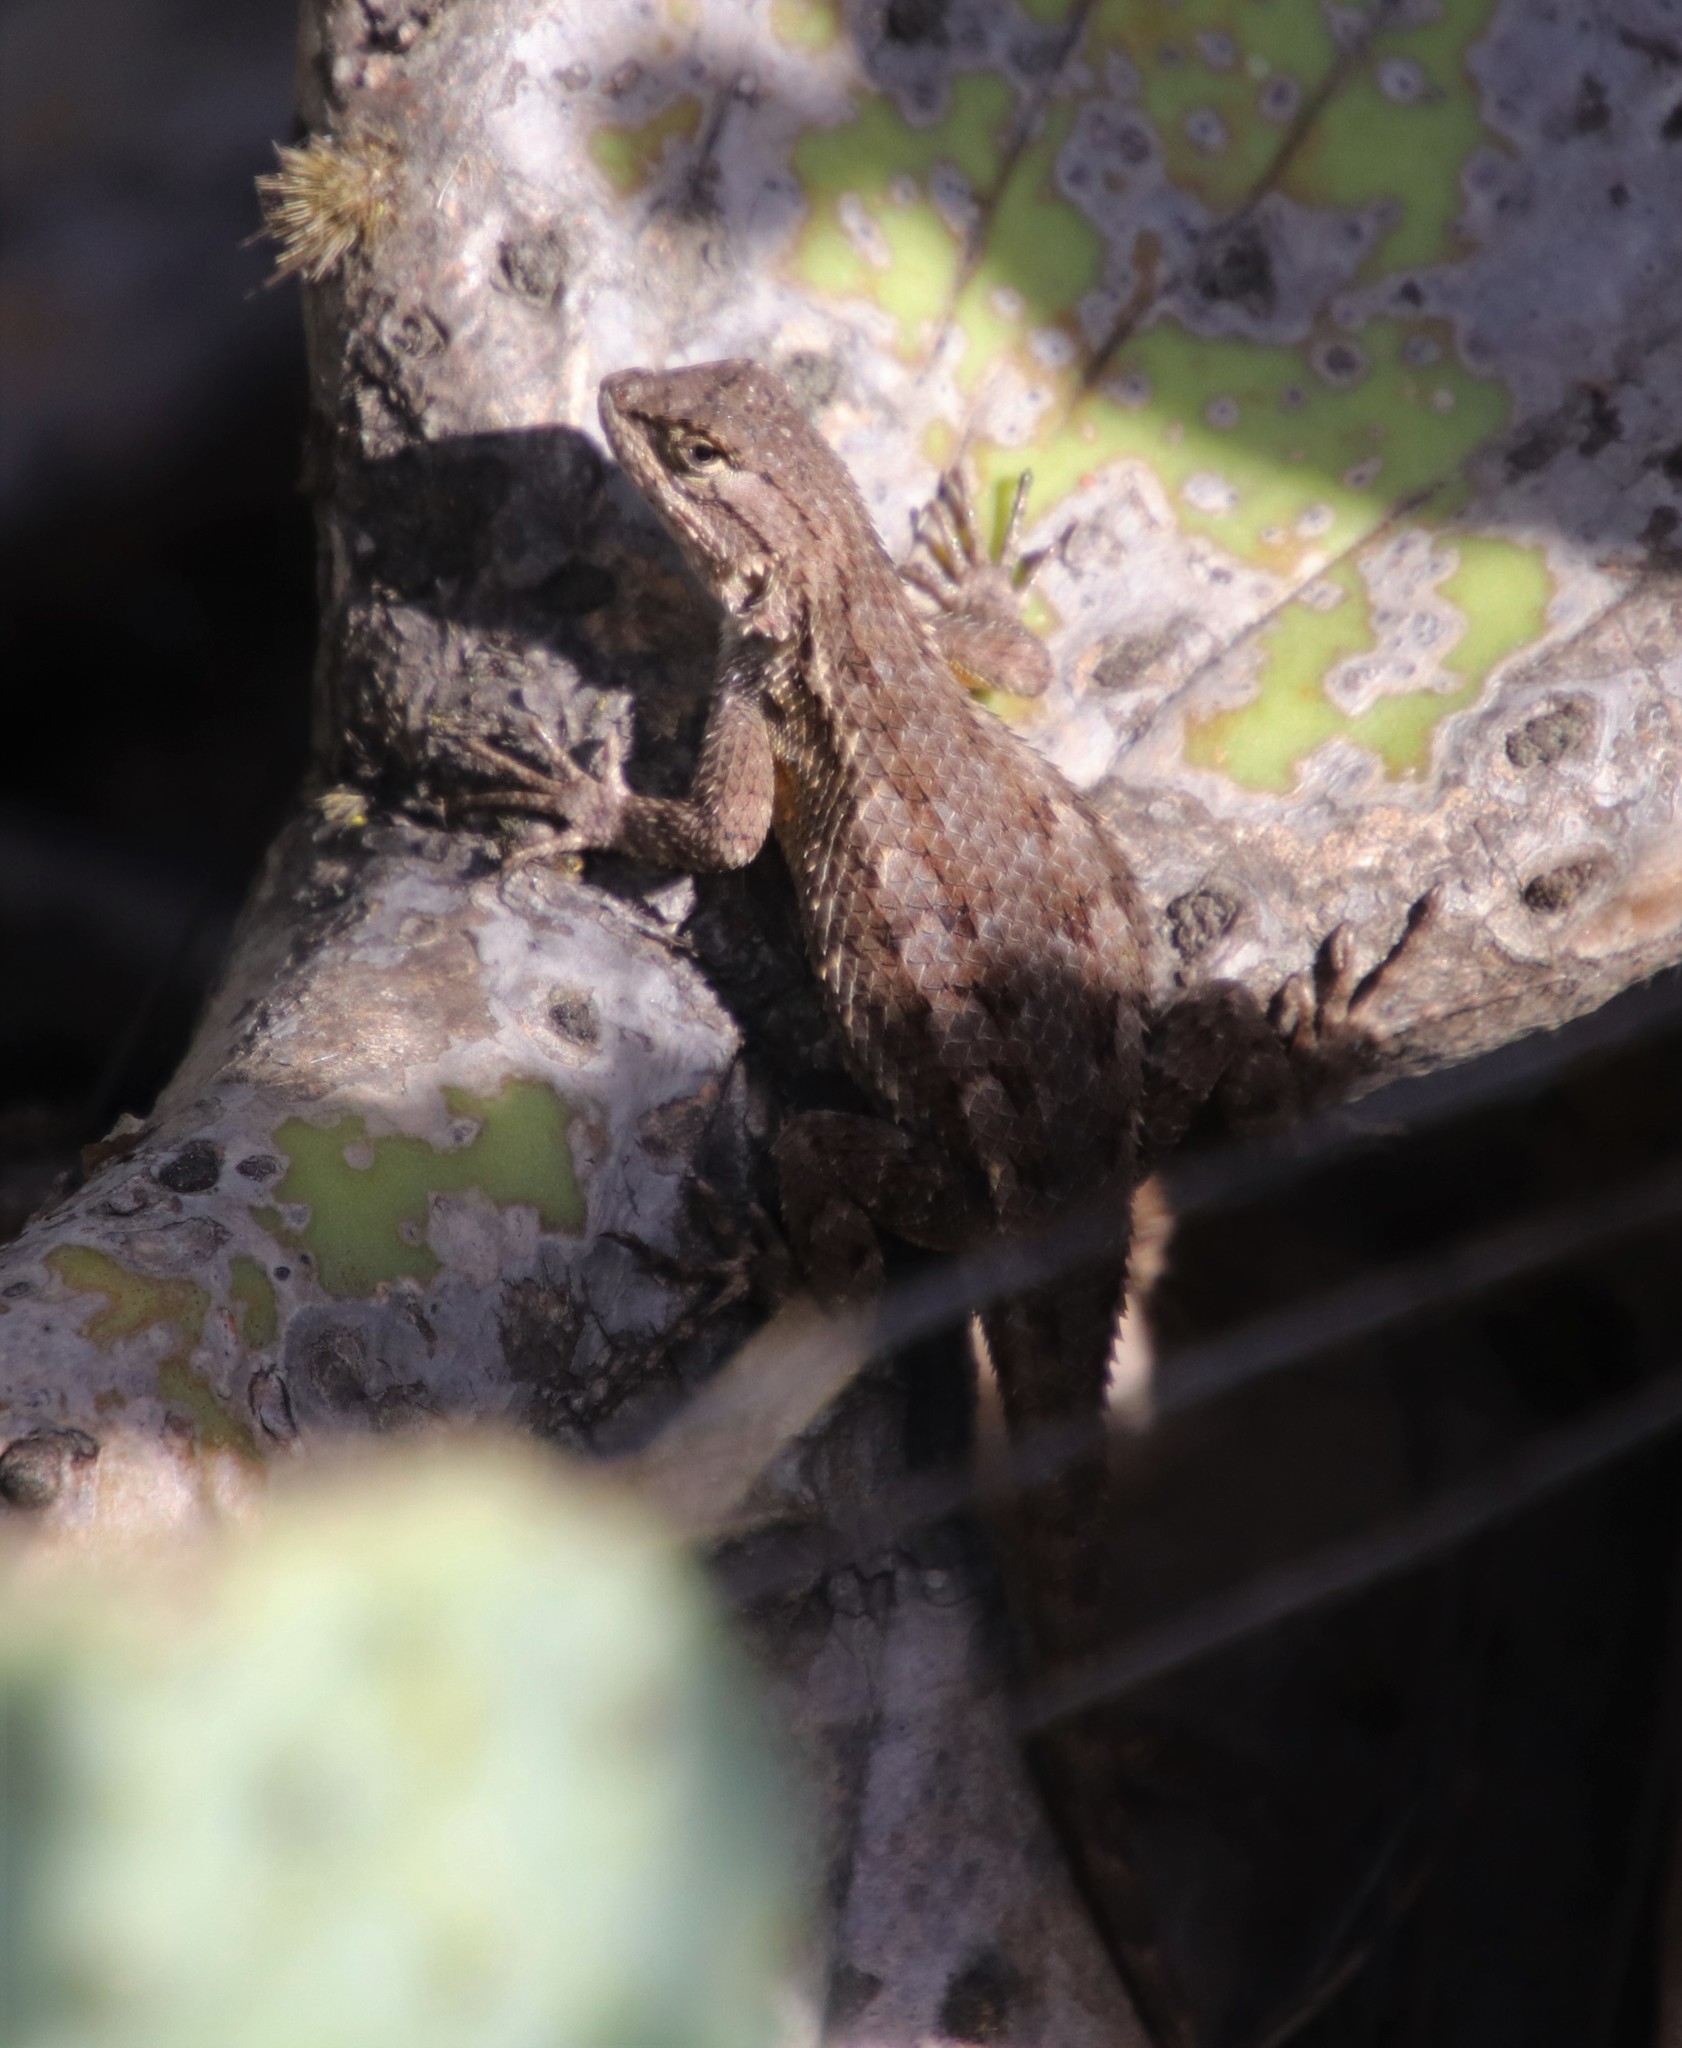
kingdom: Animalia
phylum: Chordata
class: Squamata
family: Phrynosomatidae
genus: Sceloporus
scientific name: Sceloporus occidentalis
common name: Western fence lizard
